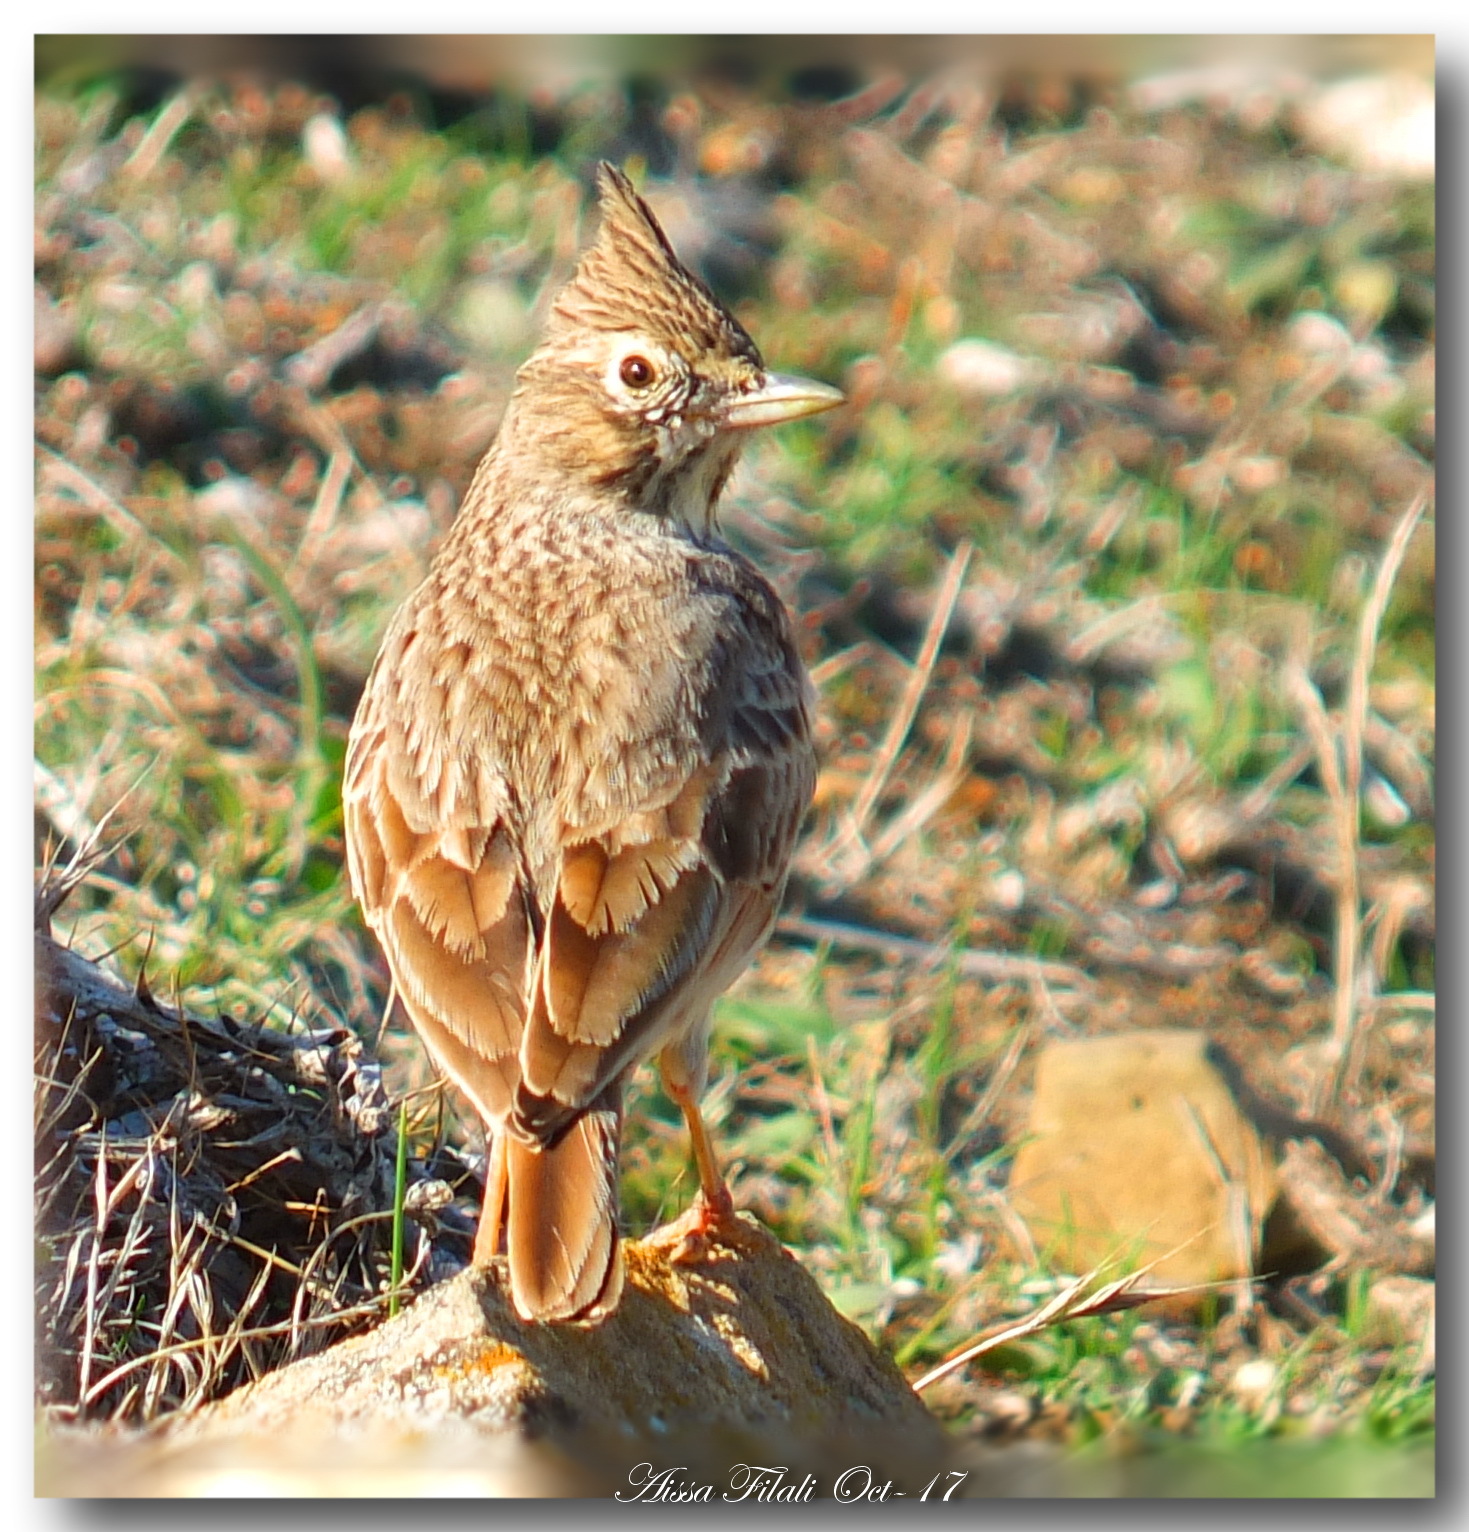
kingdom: Animalia
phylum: Chordata
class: Aves
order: Passeriformes
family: Alaudidae
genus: Galerida
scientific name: Galerida theklae
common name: Thekla lark
